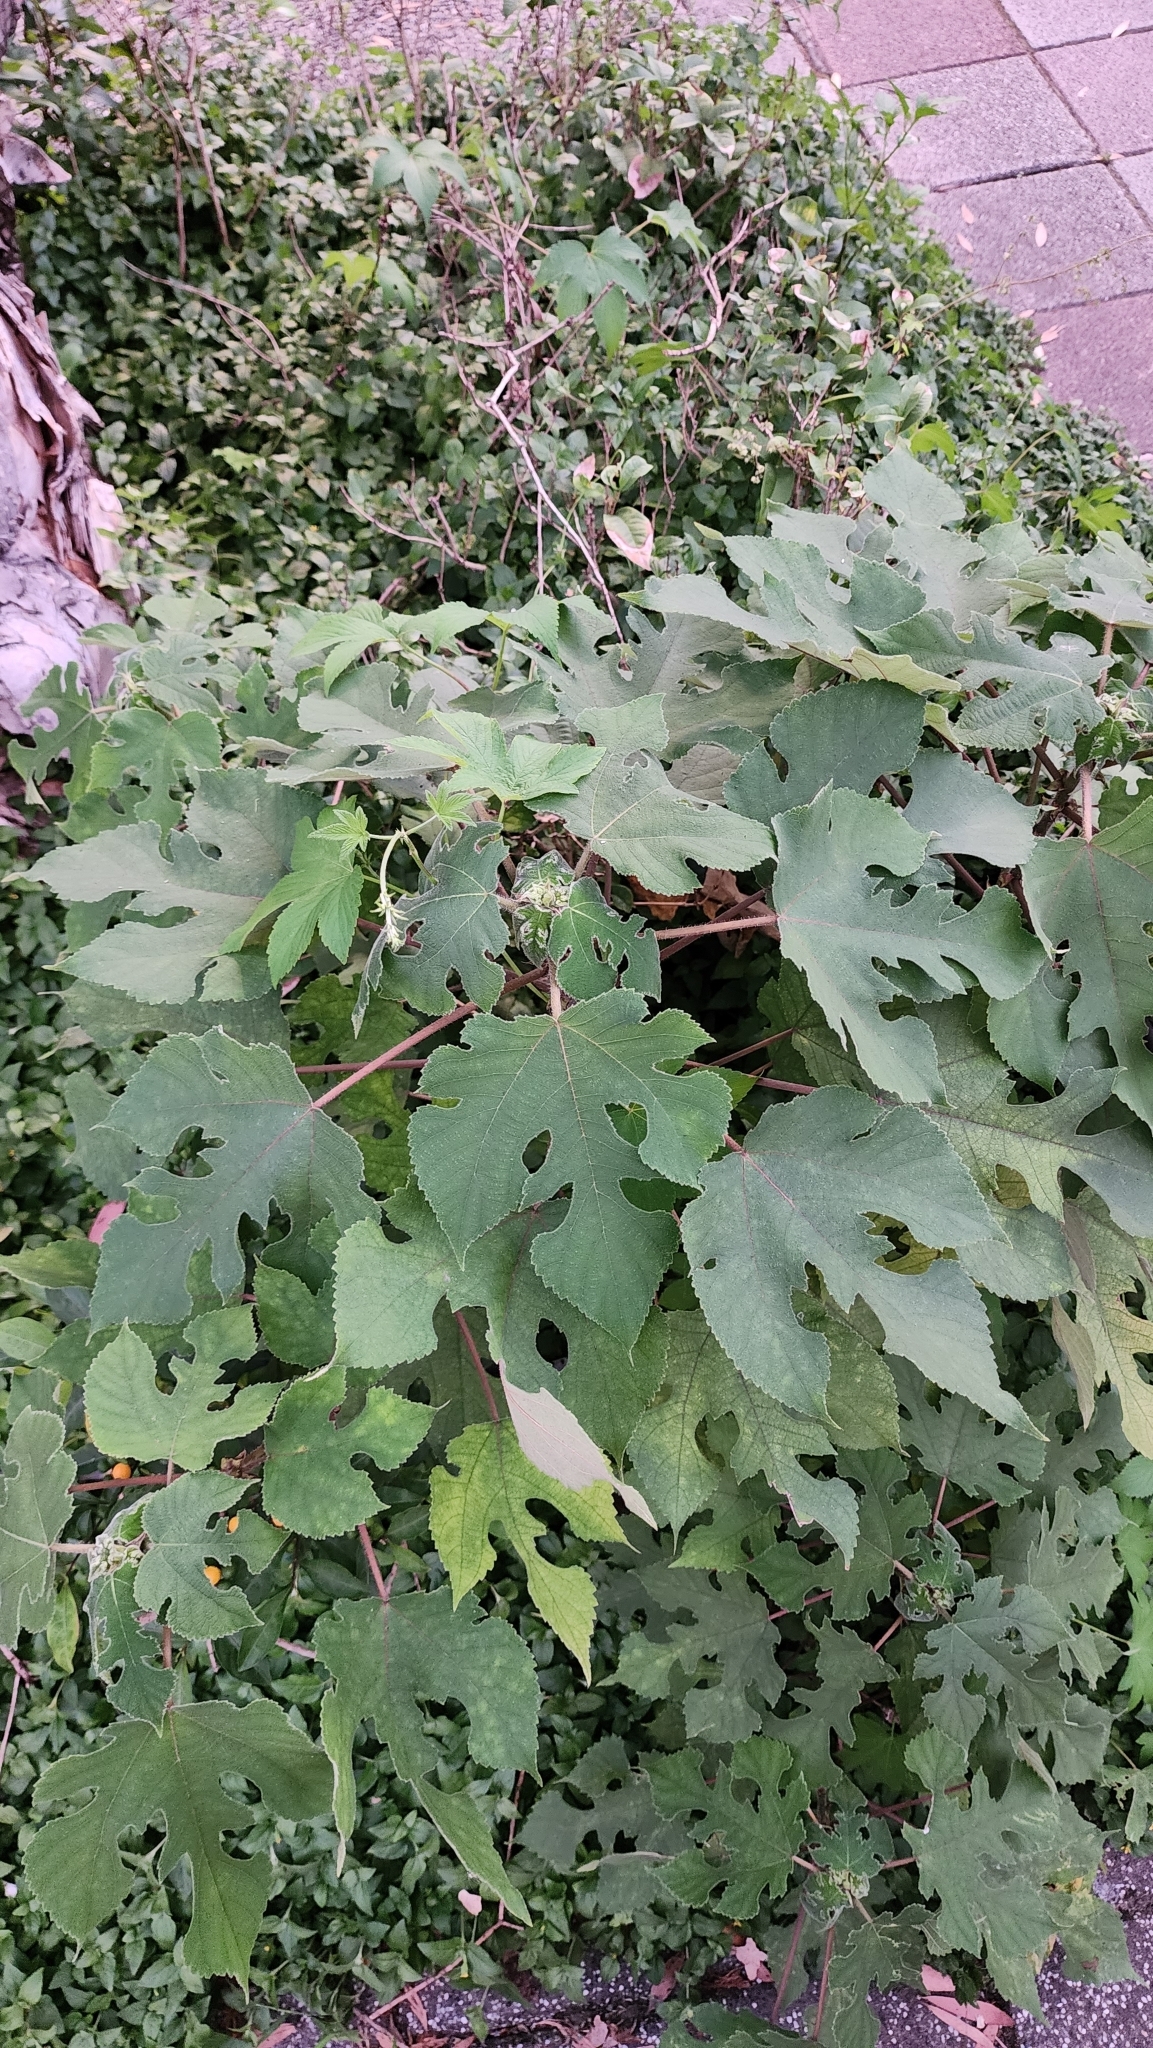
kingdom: Plantae
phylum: Tracheophyta
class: Magnoliopsida
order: Rosales
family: Moraceae
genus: Broussonetia
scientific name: Broussonetia papyrifera
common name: Paper mulberry
